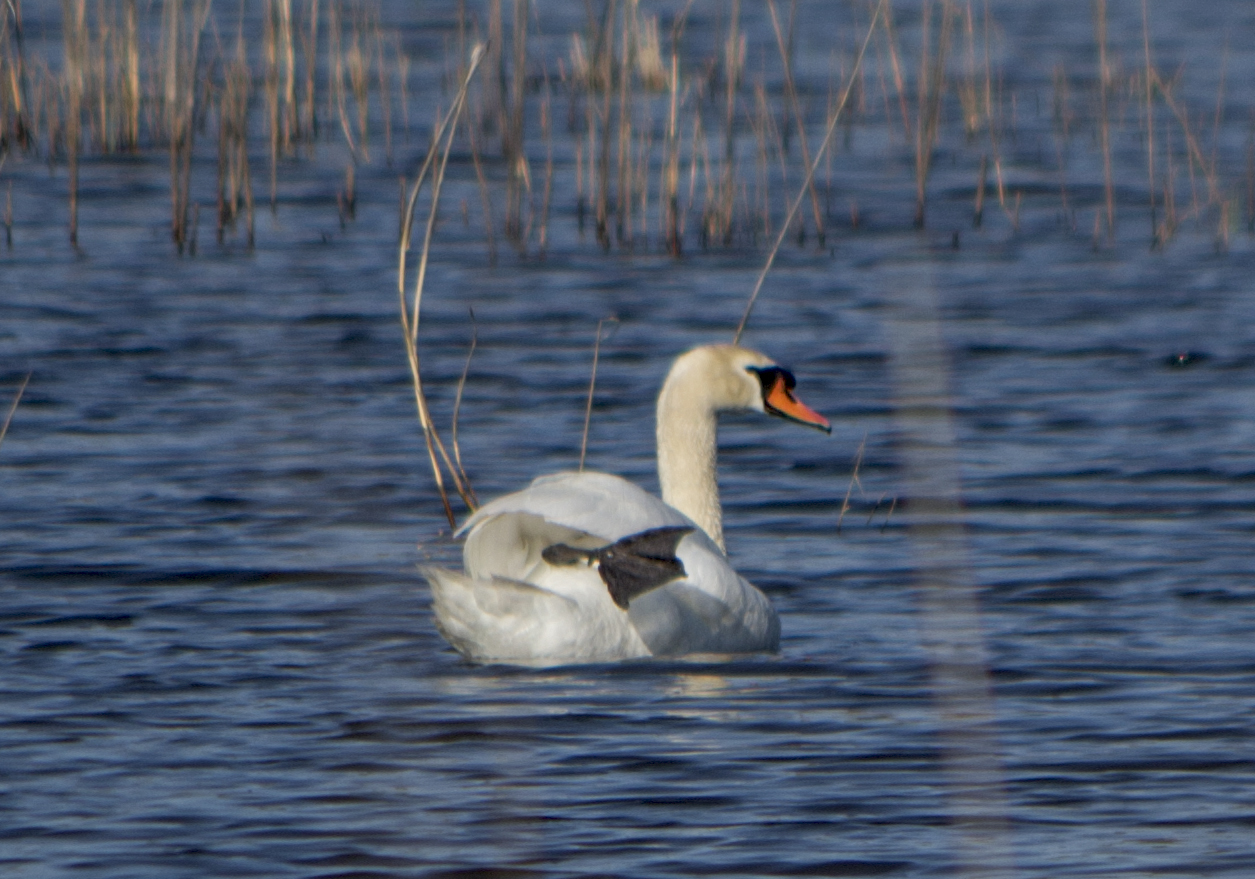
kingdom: Animalia
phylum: Chordata
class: Aves
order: Anseriformes
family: Anatidae
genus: Cygnus
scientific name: Cygnus olor
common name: Mute swan
